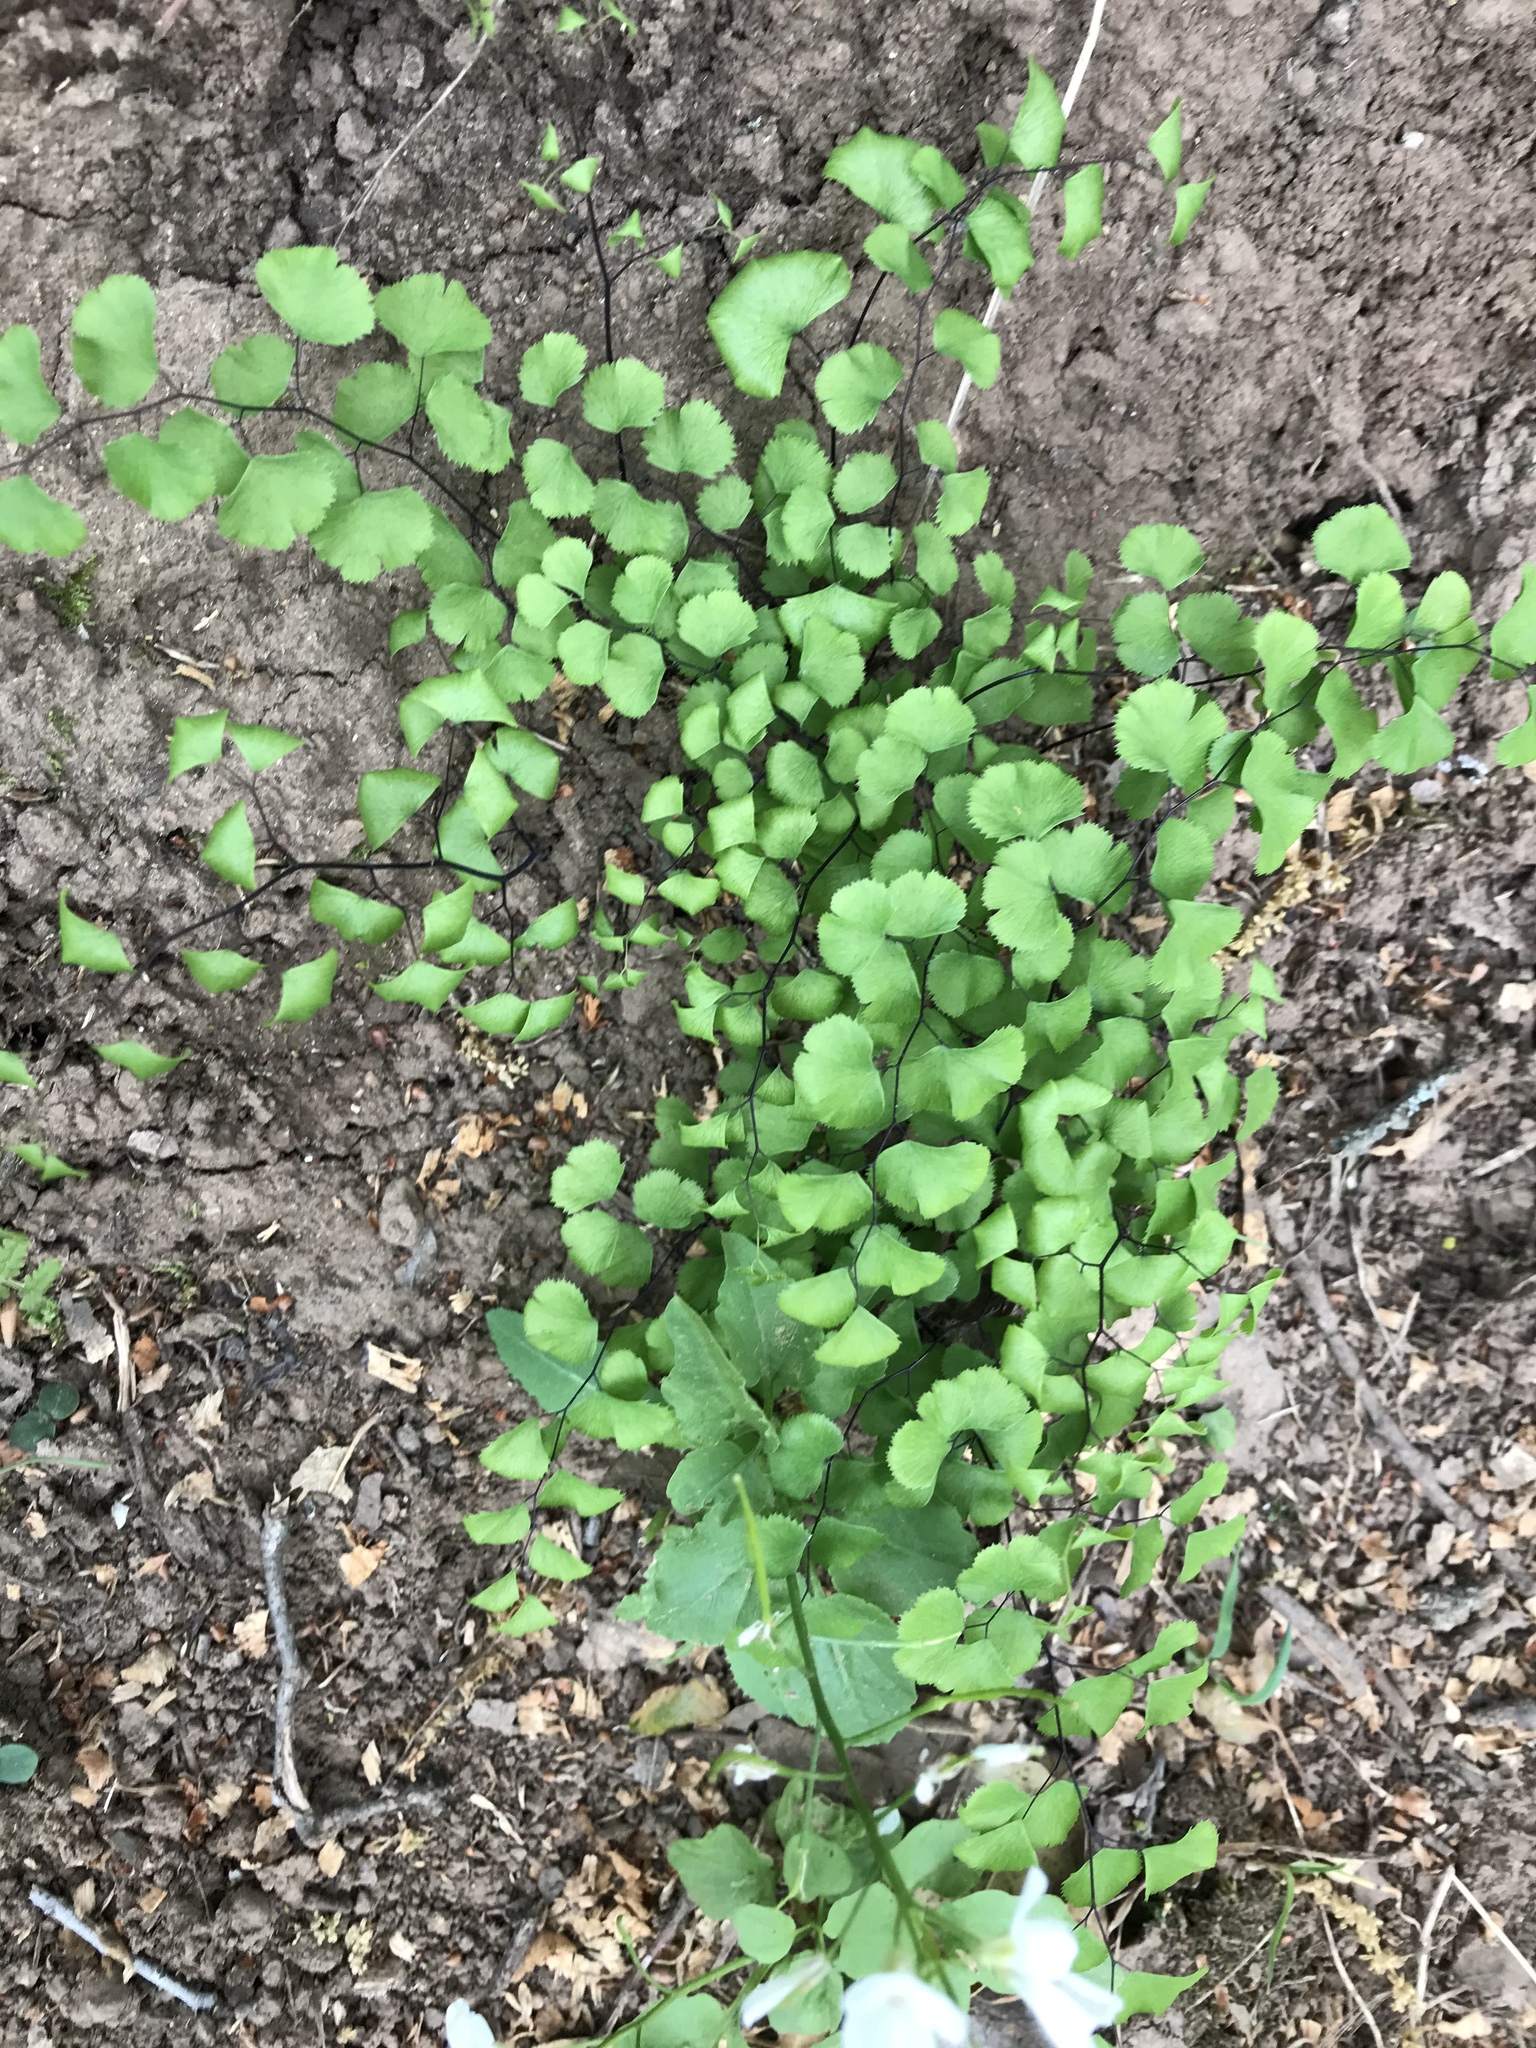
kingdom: Plantae
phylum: Tracheophyta
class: Polypodiopsida
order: Polypodiales
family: Pteridaceae
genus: Adiantum
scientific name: Adiantum jordanii
